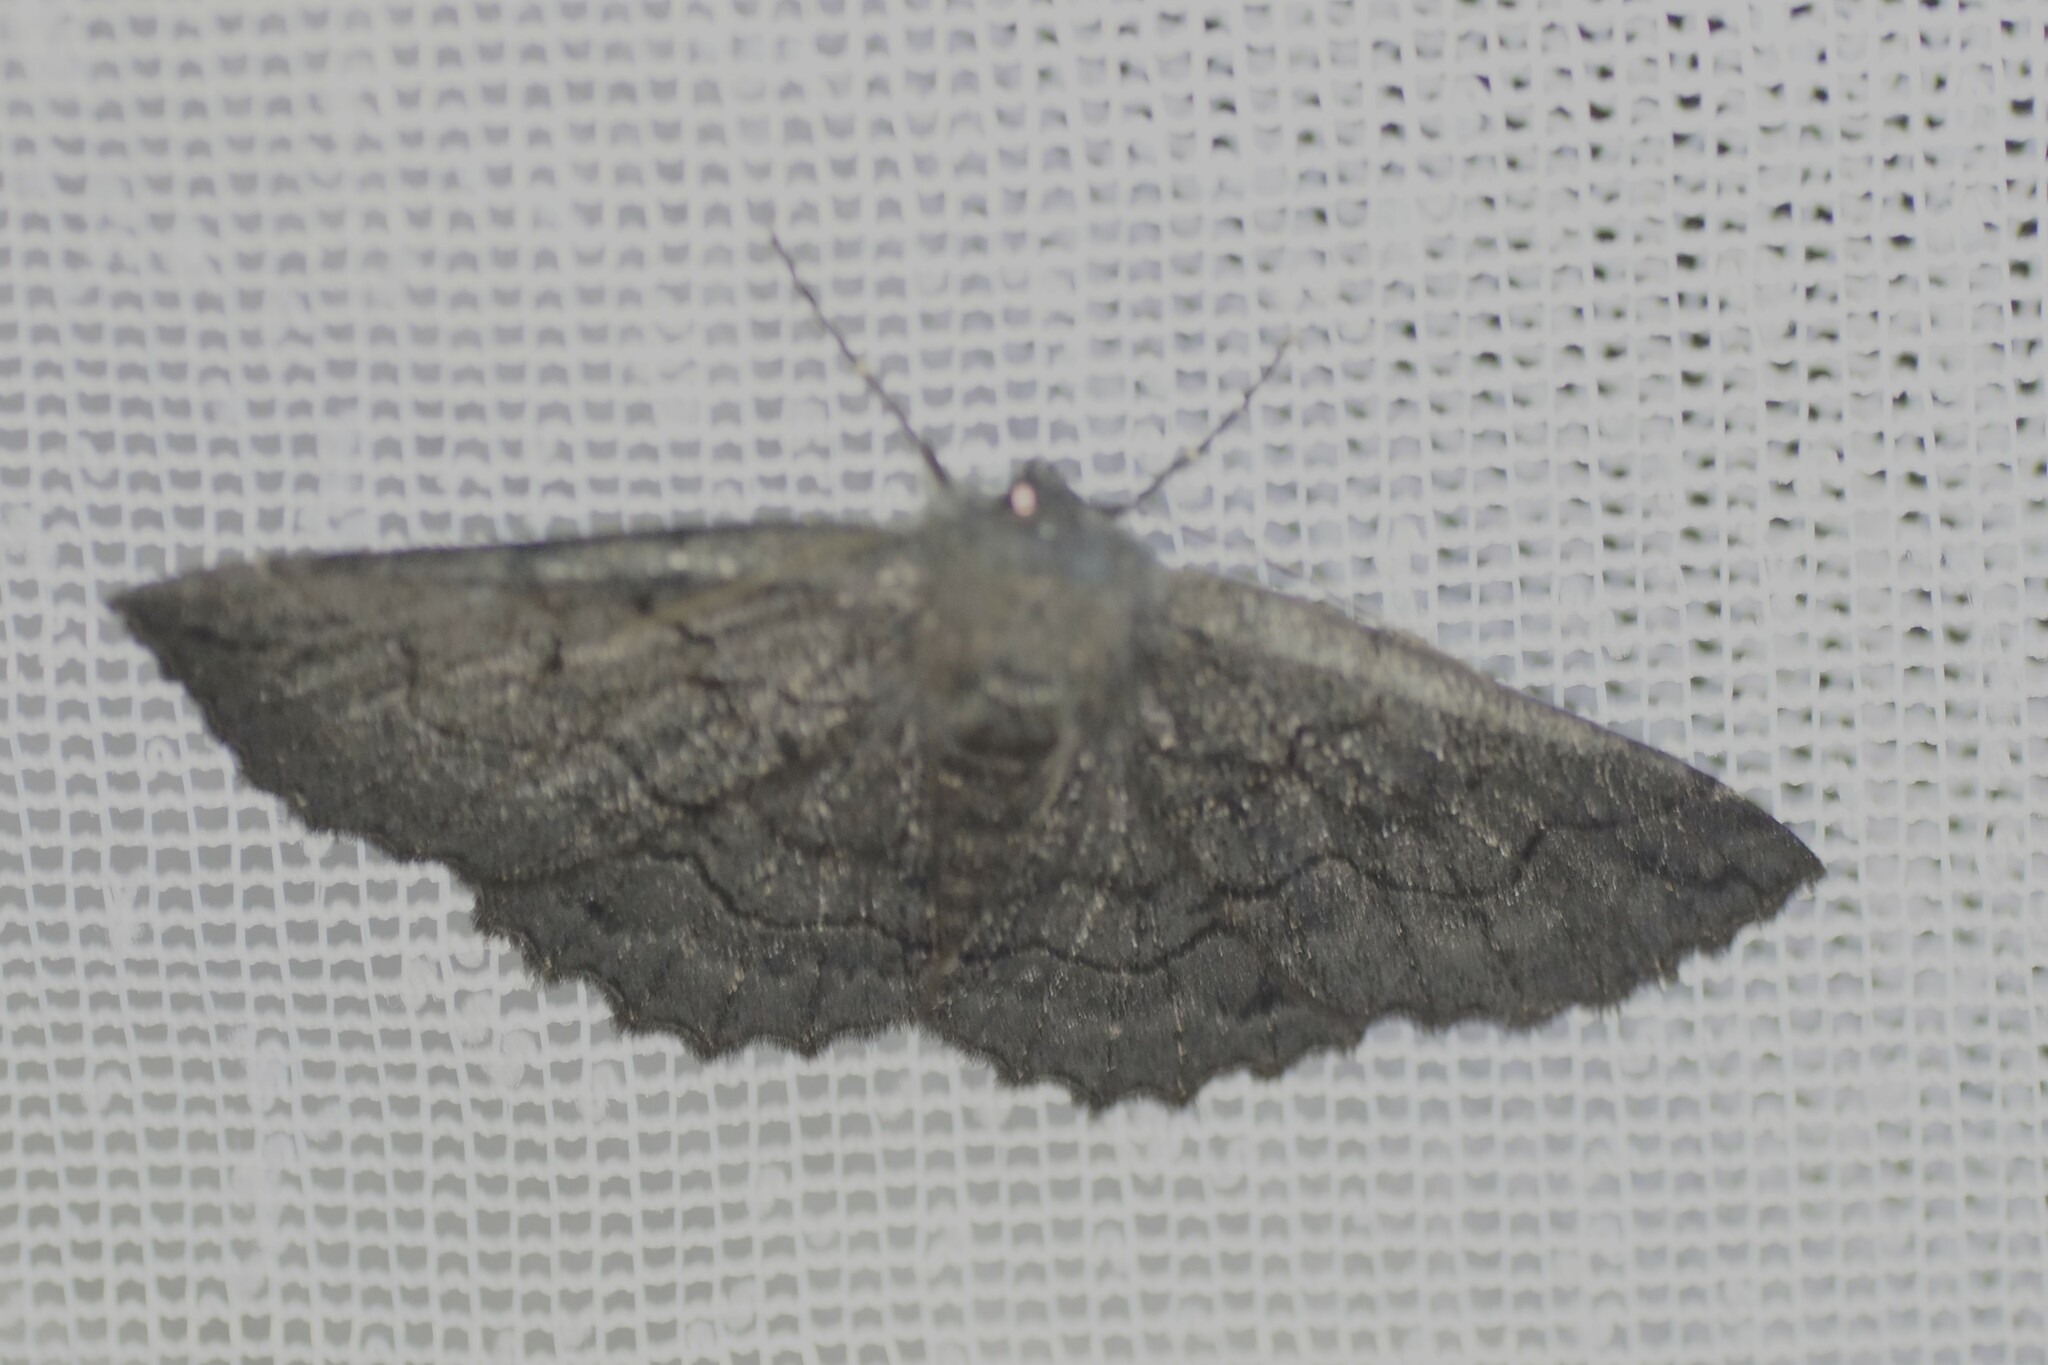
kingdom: Animalia
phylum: Arthropoda
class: Insecta
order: Lepidoptera
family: Geometridae
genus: Melanodes
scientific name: Melanodes anthracitaria
